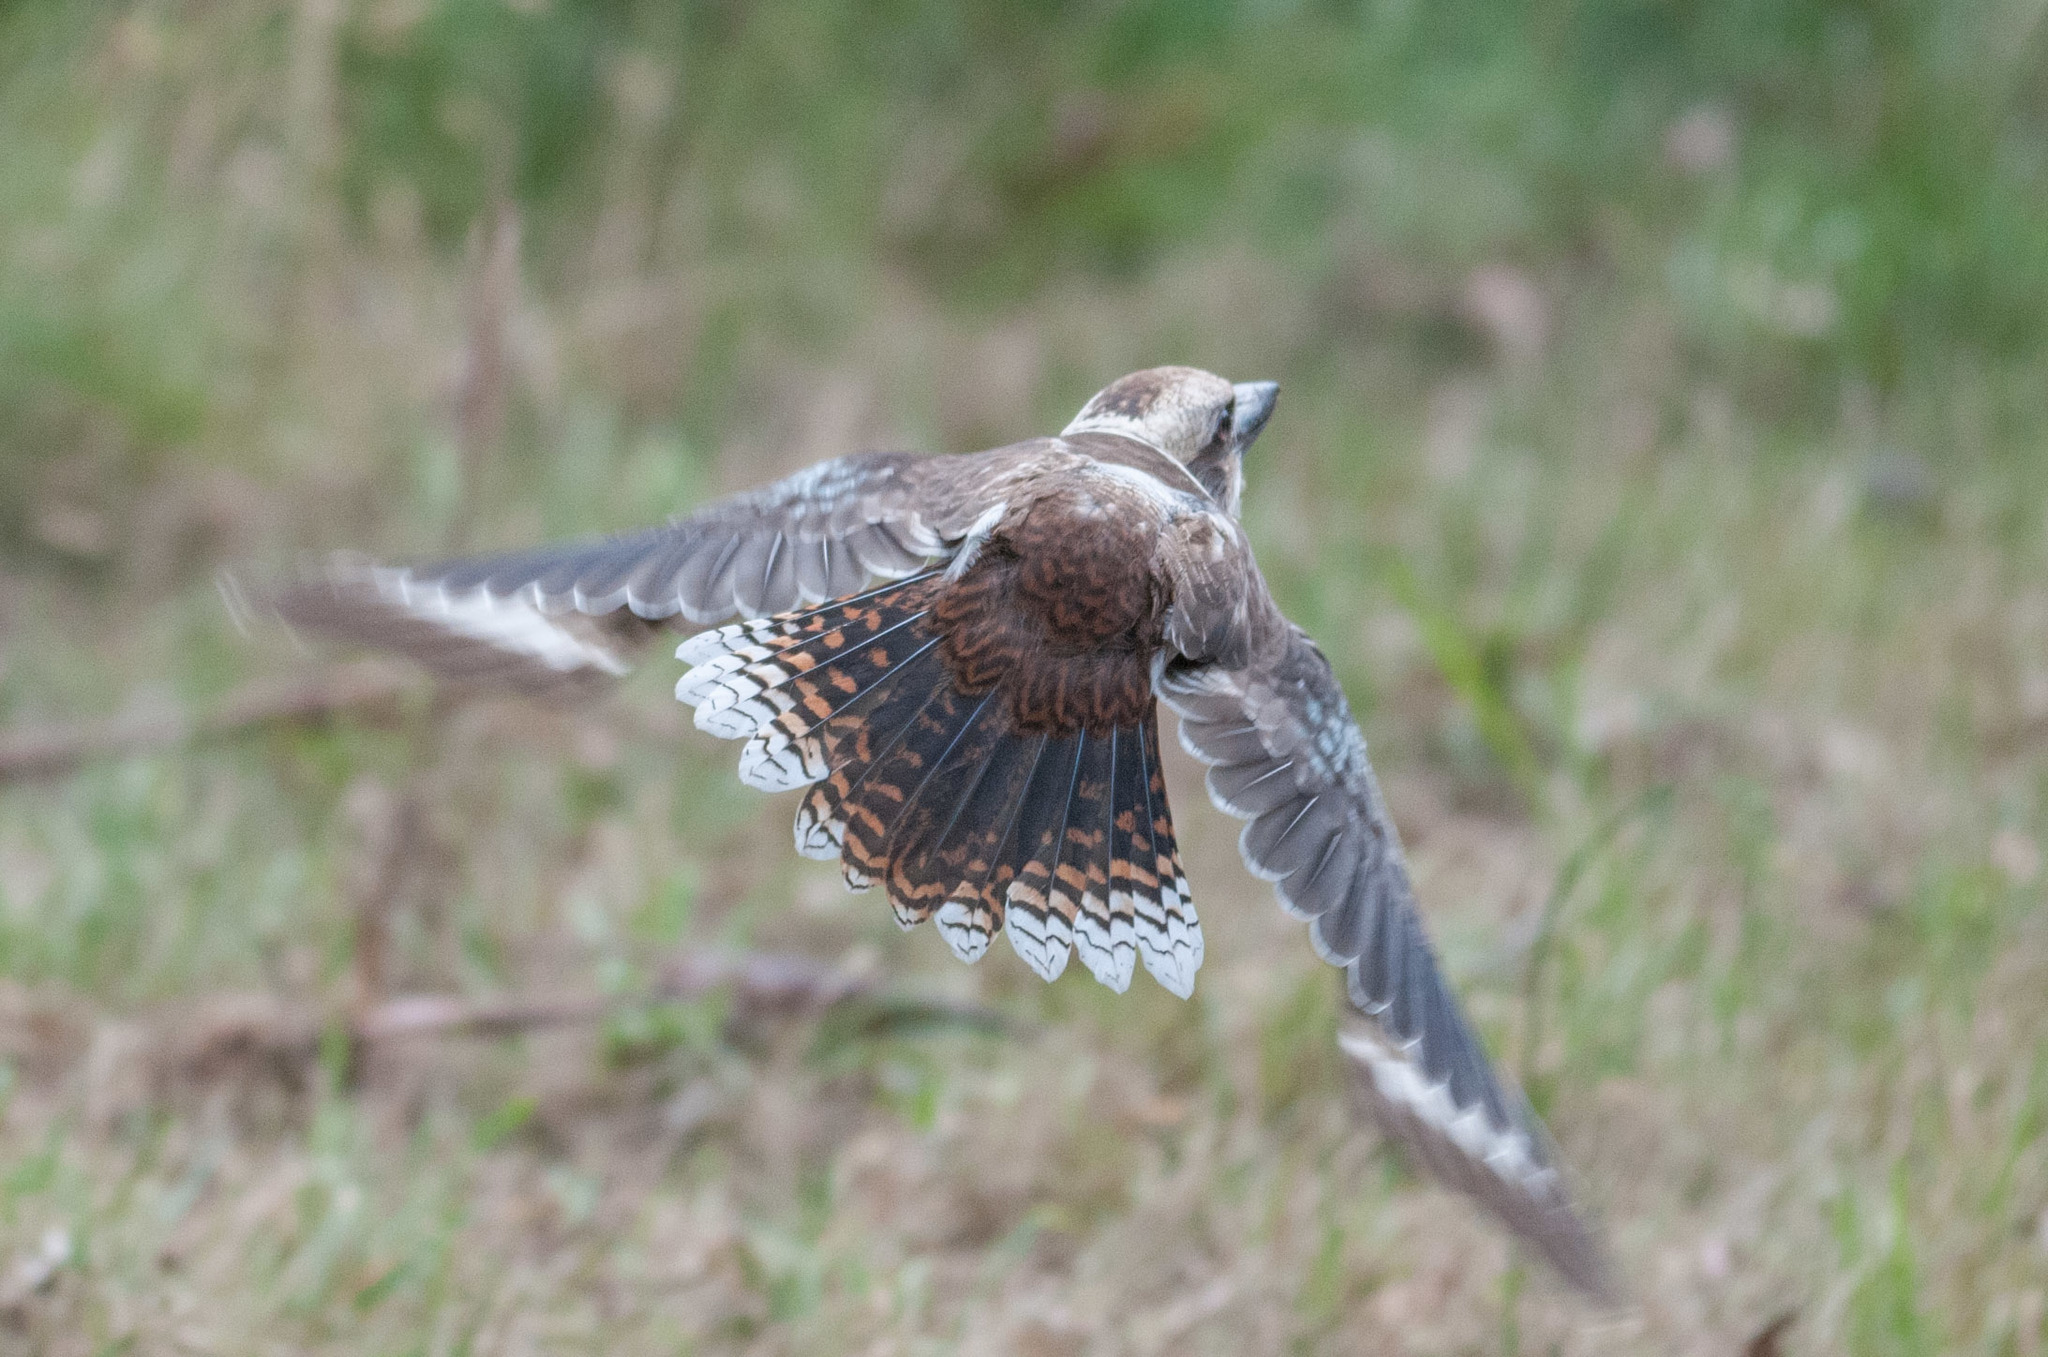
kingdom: Animalia
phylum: Chordata
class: Aves
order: Coraciiformes
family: Alcedinidae
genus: Dacelo
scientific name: Dacelo novaeguineae
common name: Laughing kookaburra
